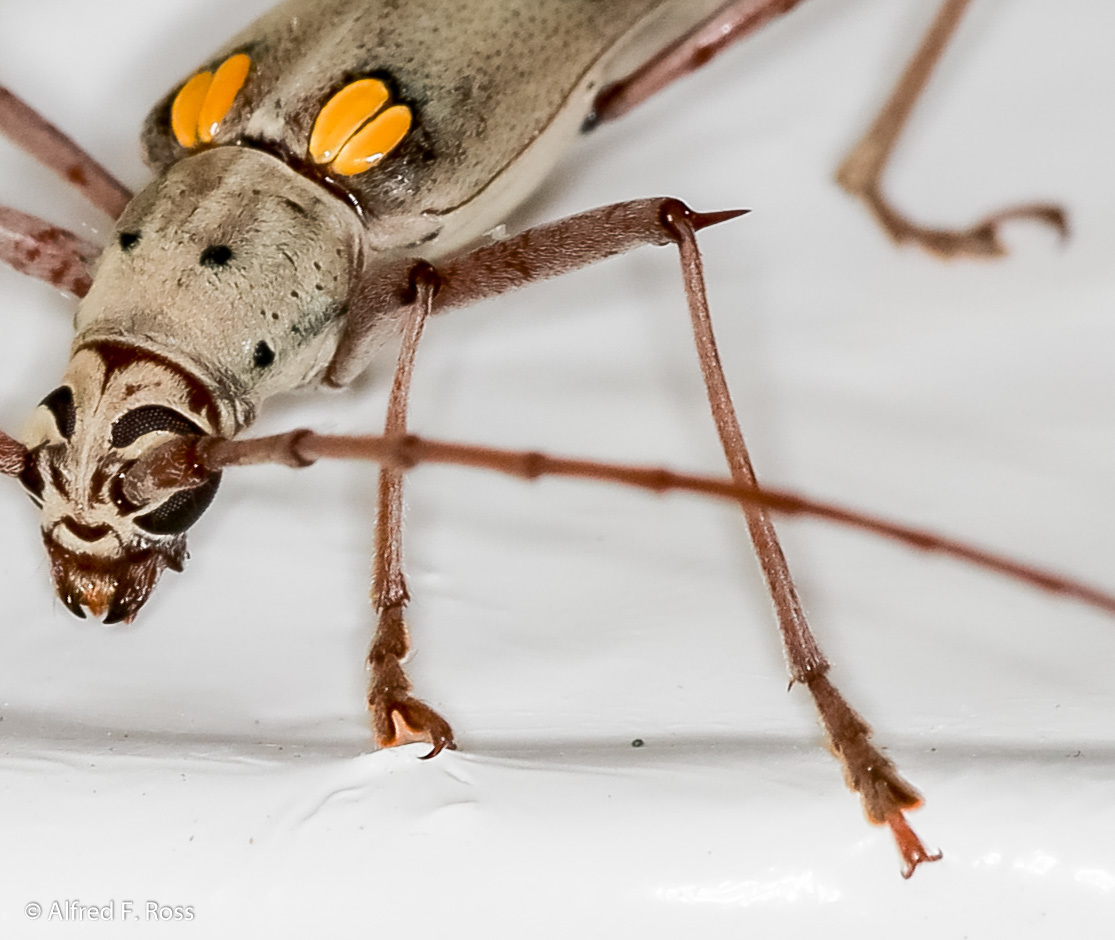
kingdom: Animalia
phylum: Arthropoda
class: Insecta
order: Coleoptera
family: Cerambycidae
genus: Eburia
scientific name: Eburia jamaicae
